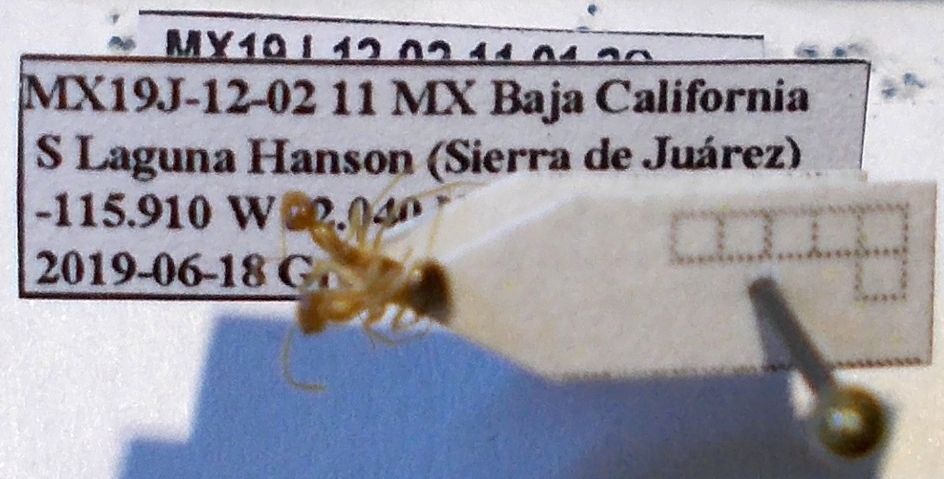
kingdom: Animalia
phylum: Arthropoda
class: Insecta
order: Hymenoptera
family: Formicidae
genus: Myrmecocystus
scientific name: Myrmecocystus testaceus
